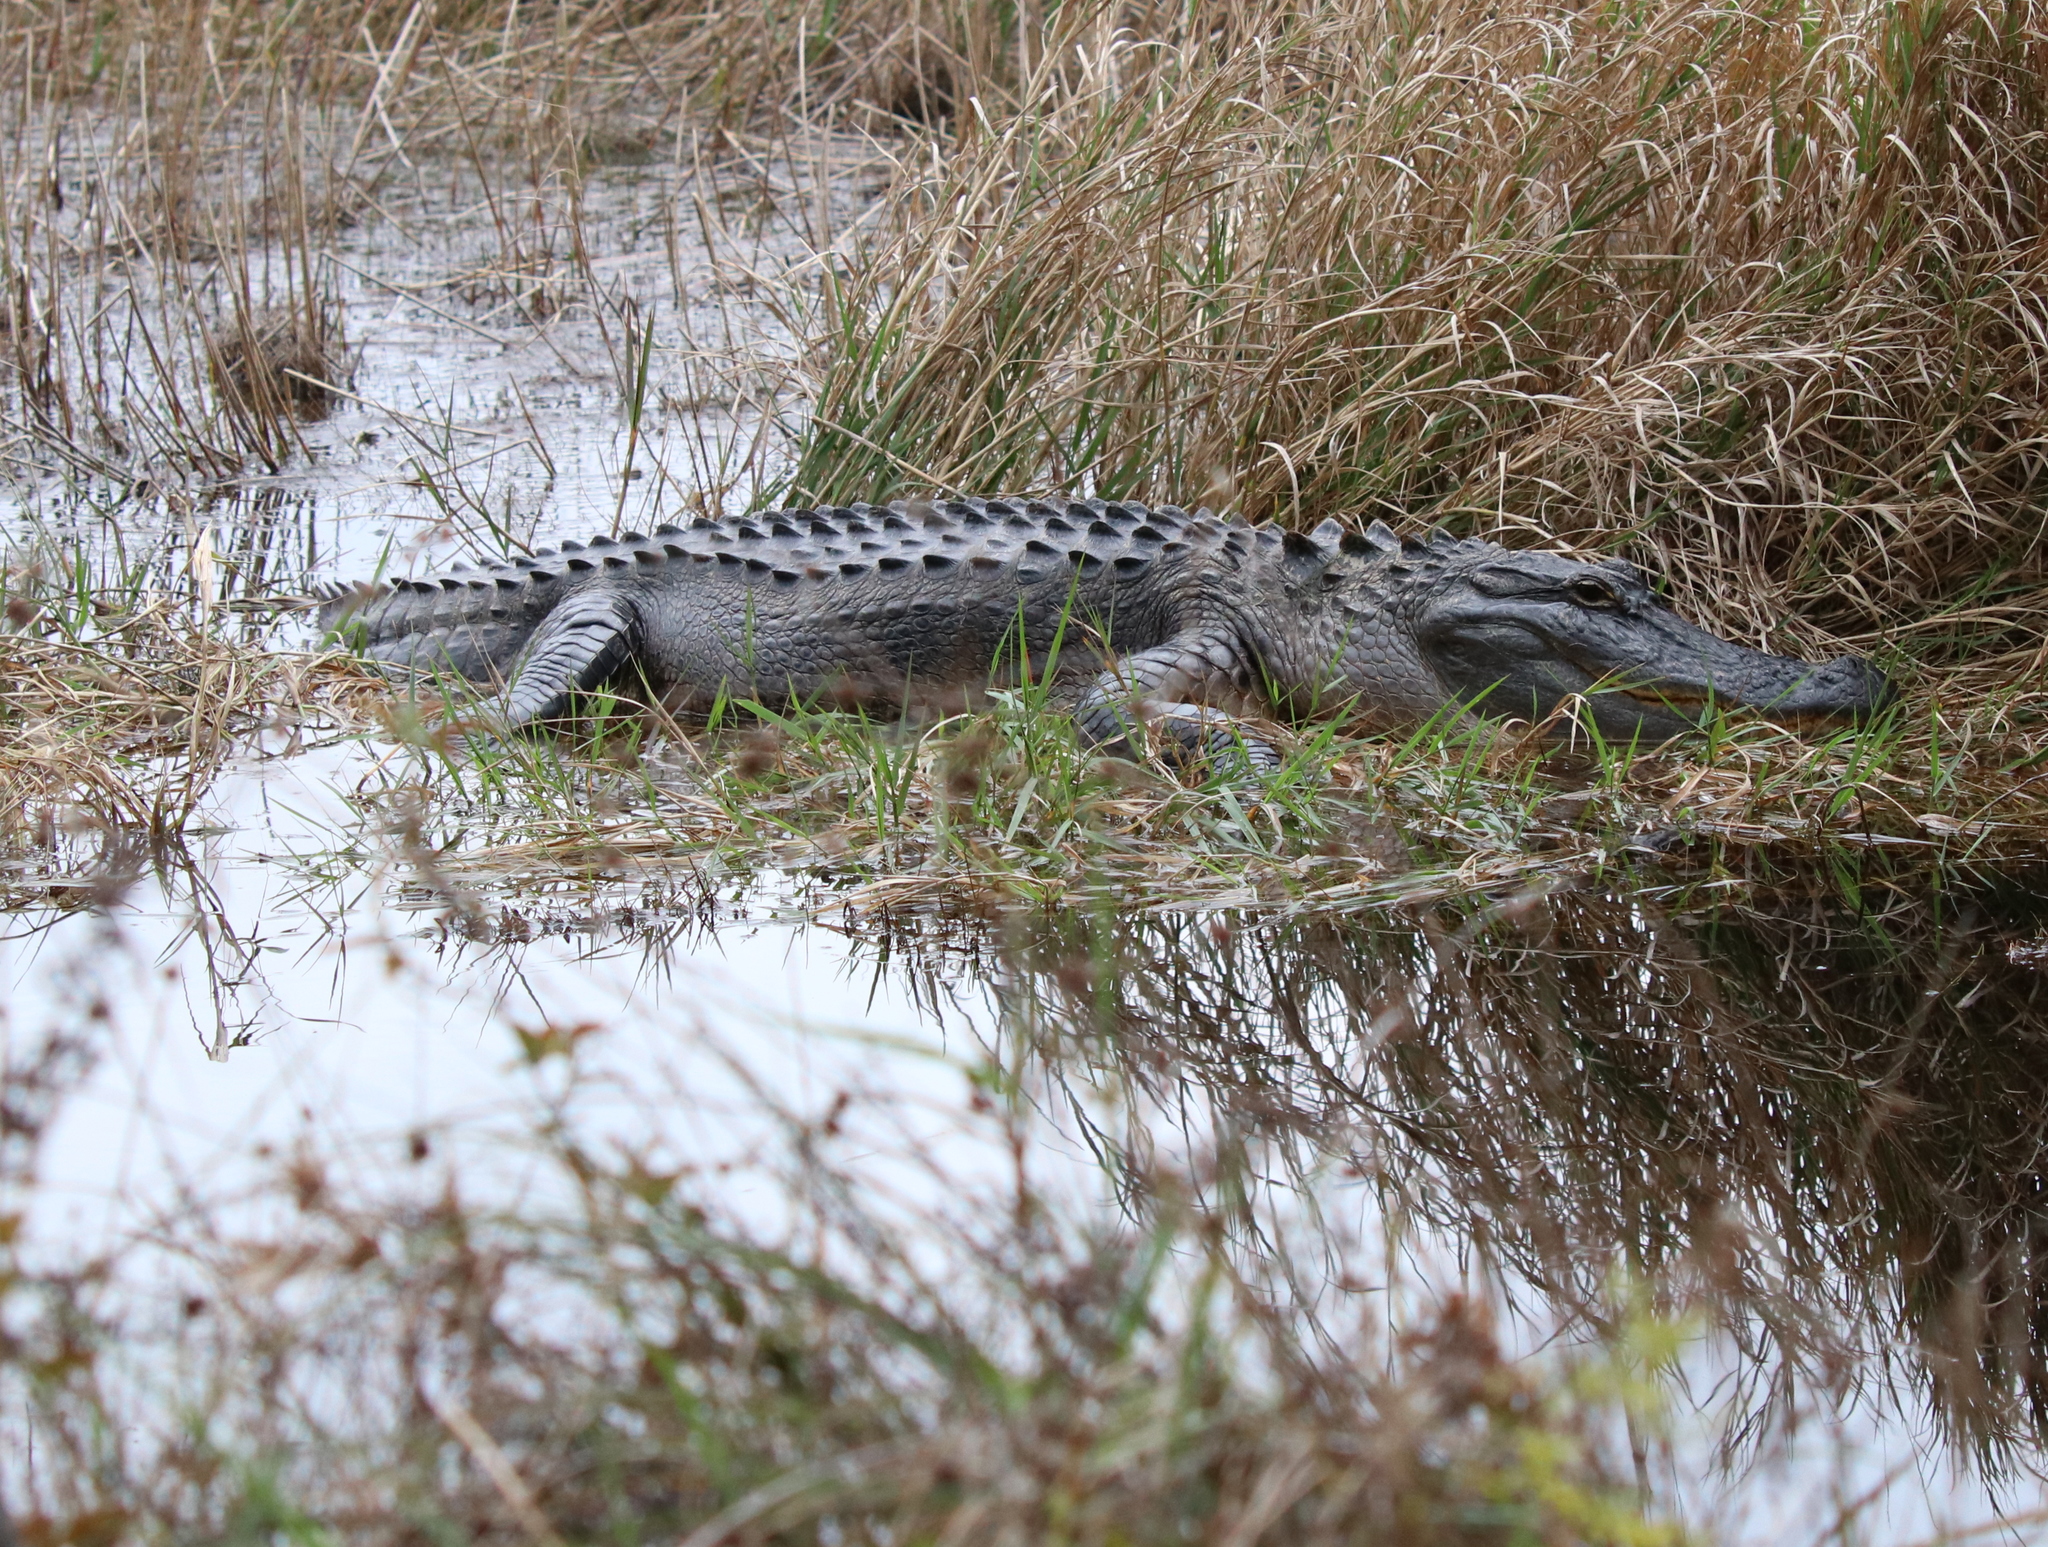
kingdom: Animalia
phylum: Chordata
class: Crocodylia
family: Alligatoridae
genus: Alligator
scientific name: Alligator mississippiensis
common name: American alligator
